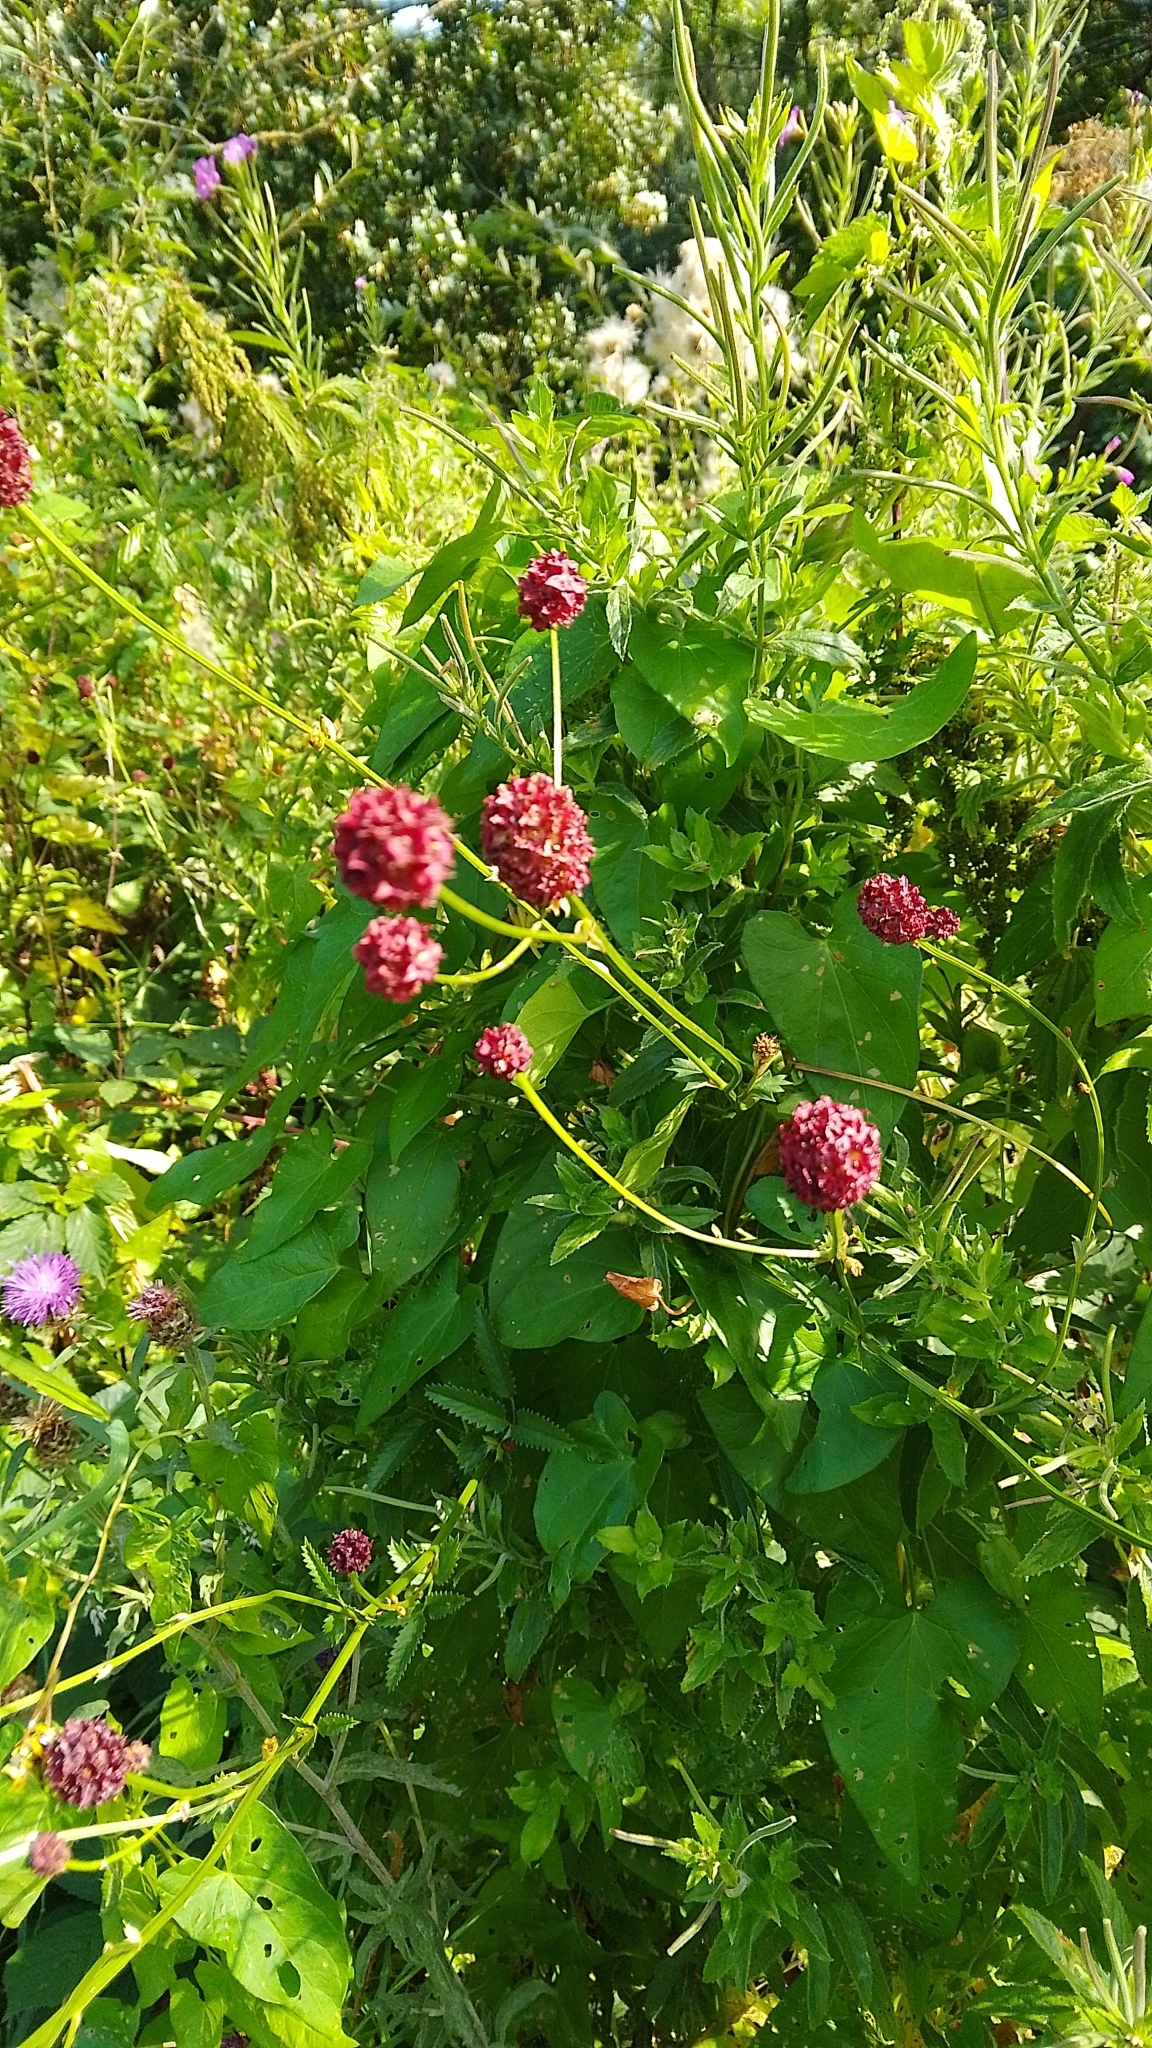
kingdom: Plantae
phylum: Tracheophyta
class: Magnoliopsida
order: Rosales
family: Rosaceae
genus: Sanguisorba
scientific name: Sanguisorba officinalis
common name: Great burnet
